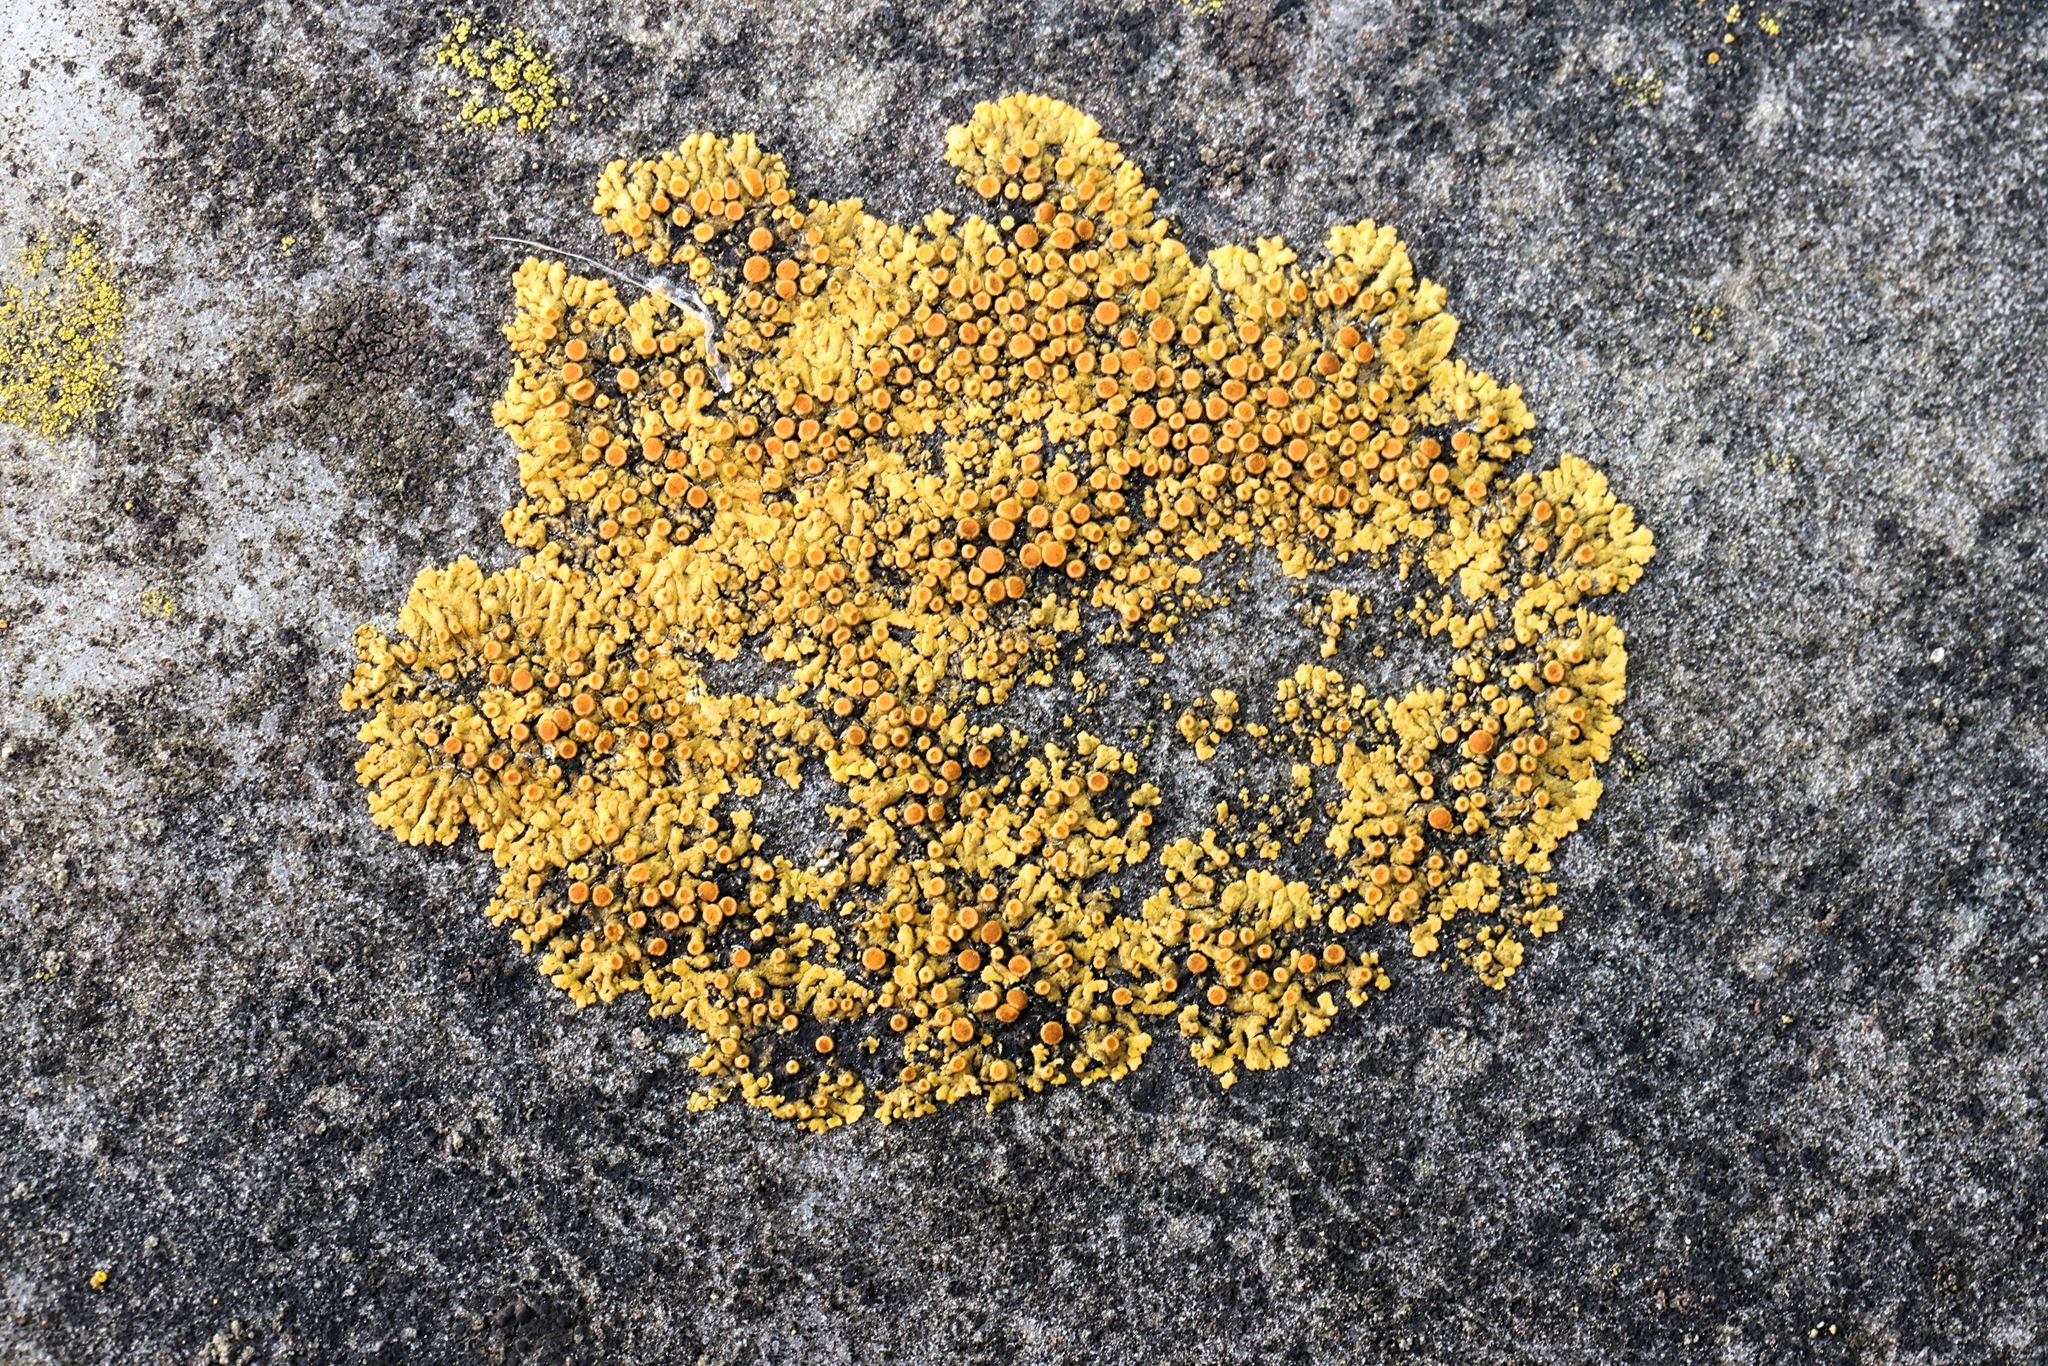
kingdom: Fungi
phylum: Ascomycota
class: Lecanoromycetes
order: Teloschistales
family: Teloschistaceae
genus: Calogaya
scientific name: Calogaya saxicola
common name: Rock jewel lichen
